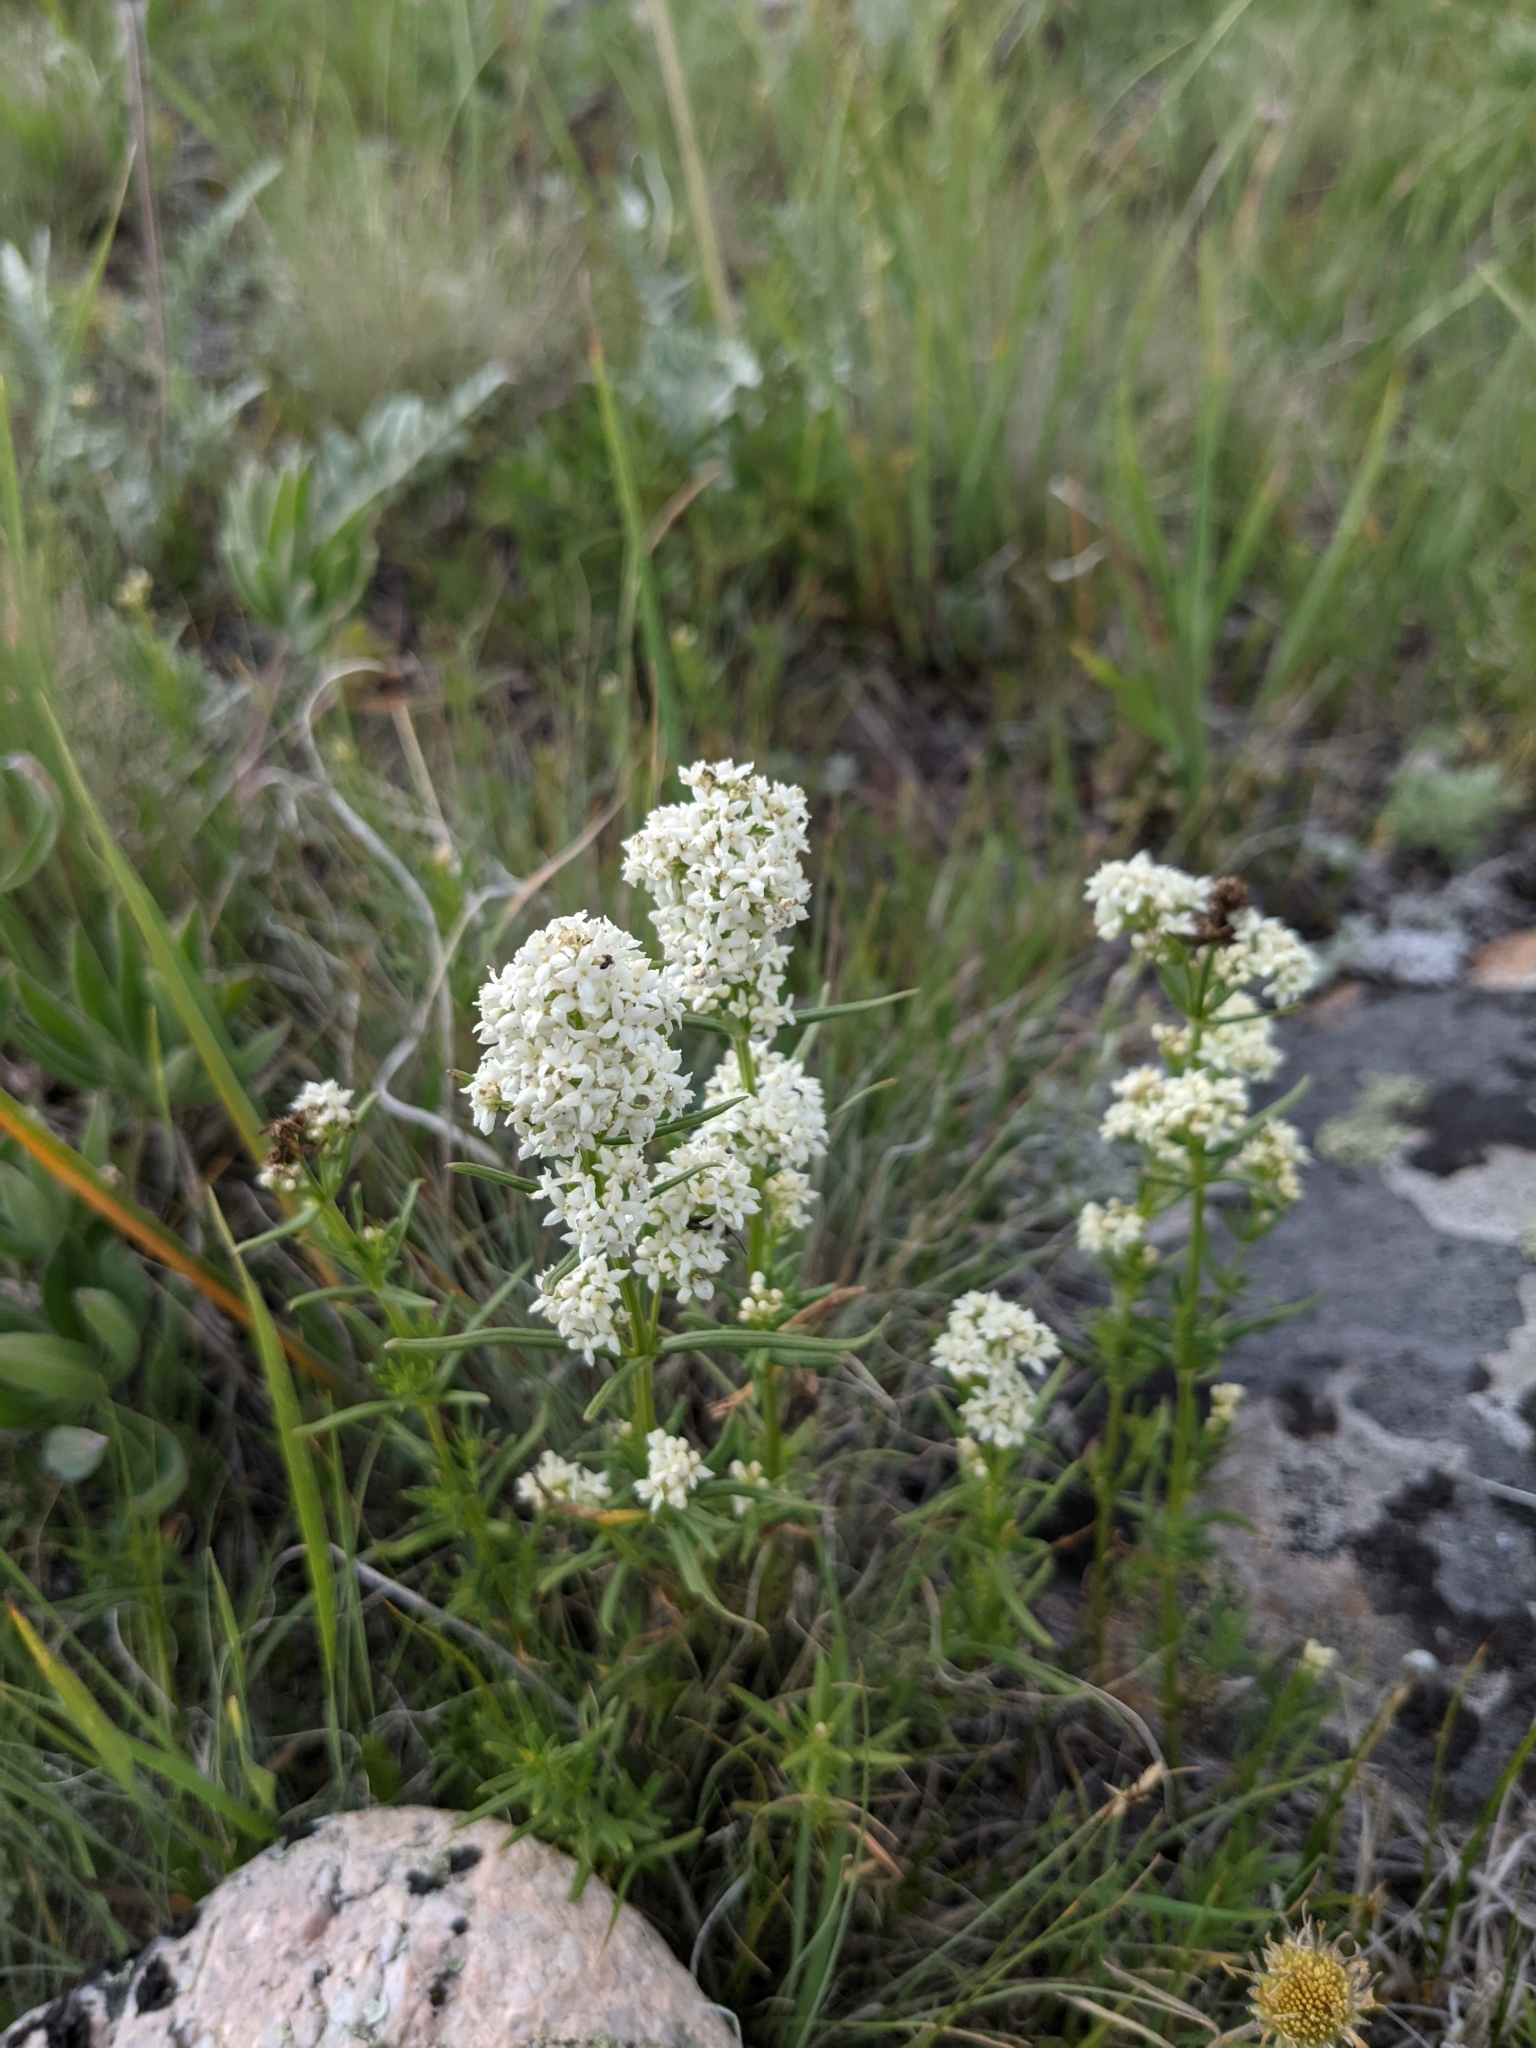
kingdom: Plantae
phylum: Tracheophyta
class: Magnoliopsida
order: Gentianales
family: Rubiaceae
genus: Galium
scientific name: Galium boreale
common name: Northern bedstraw
